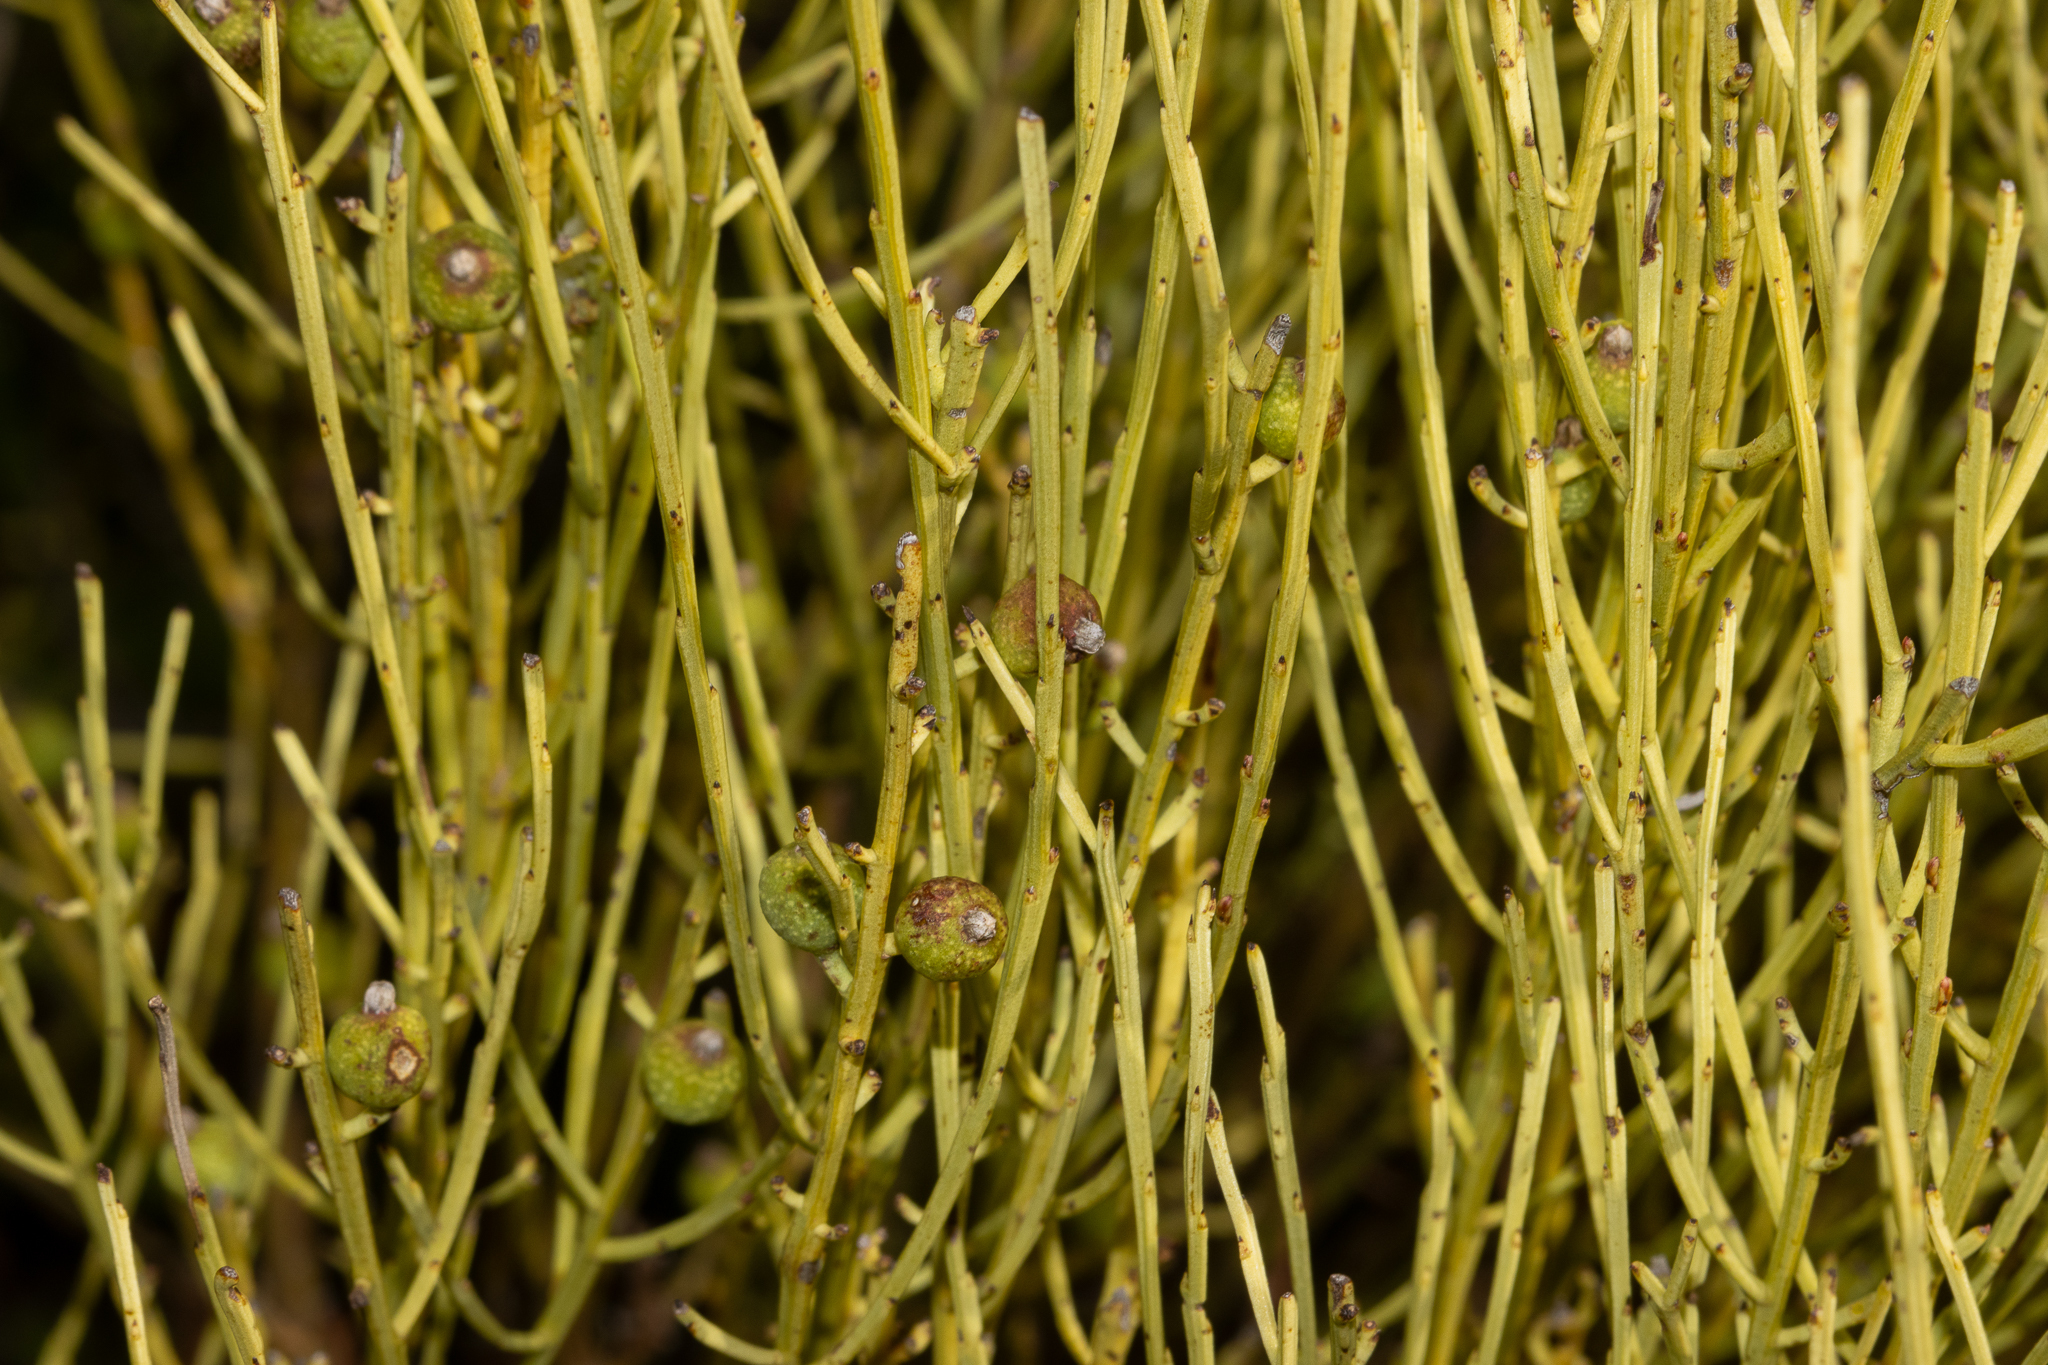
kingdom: Plantae
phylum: Tracheophyta
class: Magnoliopsida
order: Santalales
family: Amphorogynaceae
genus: Choretrum
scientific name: Choretrum glomeratum
